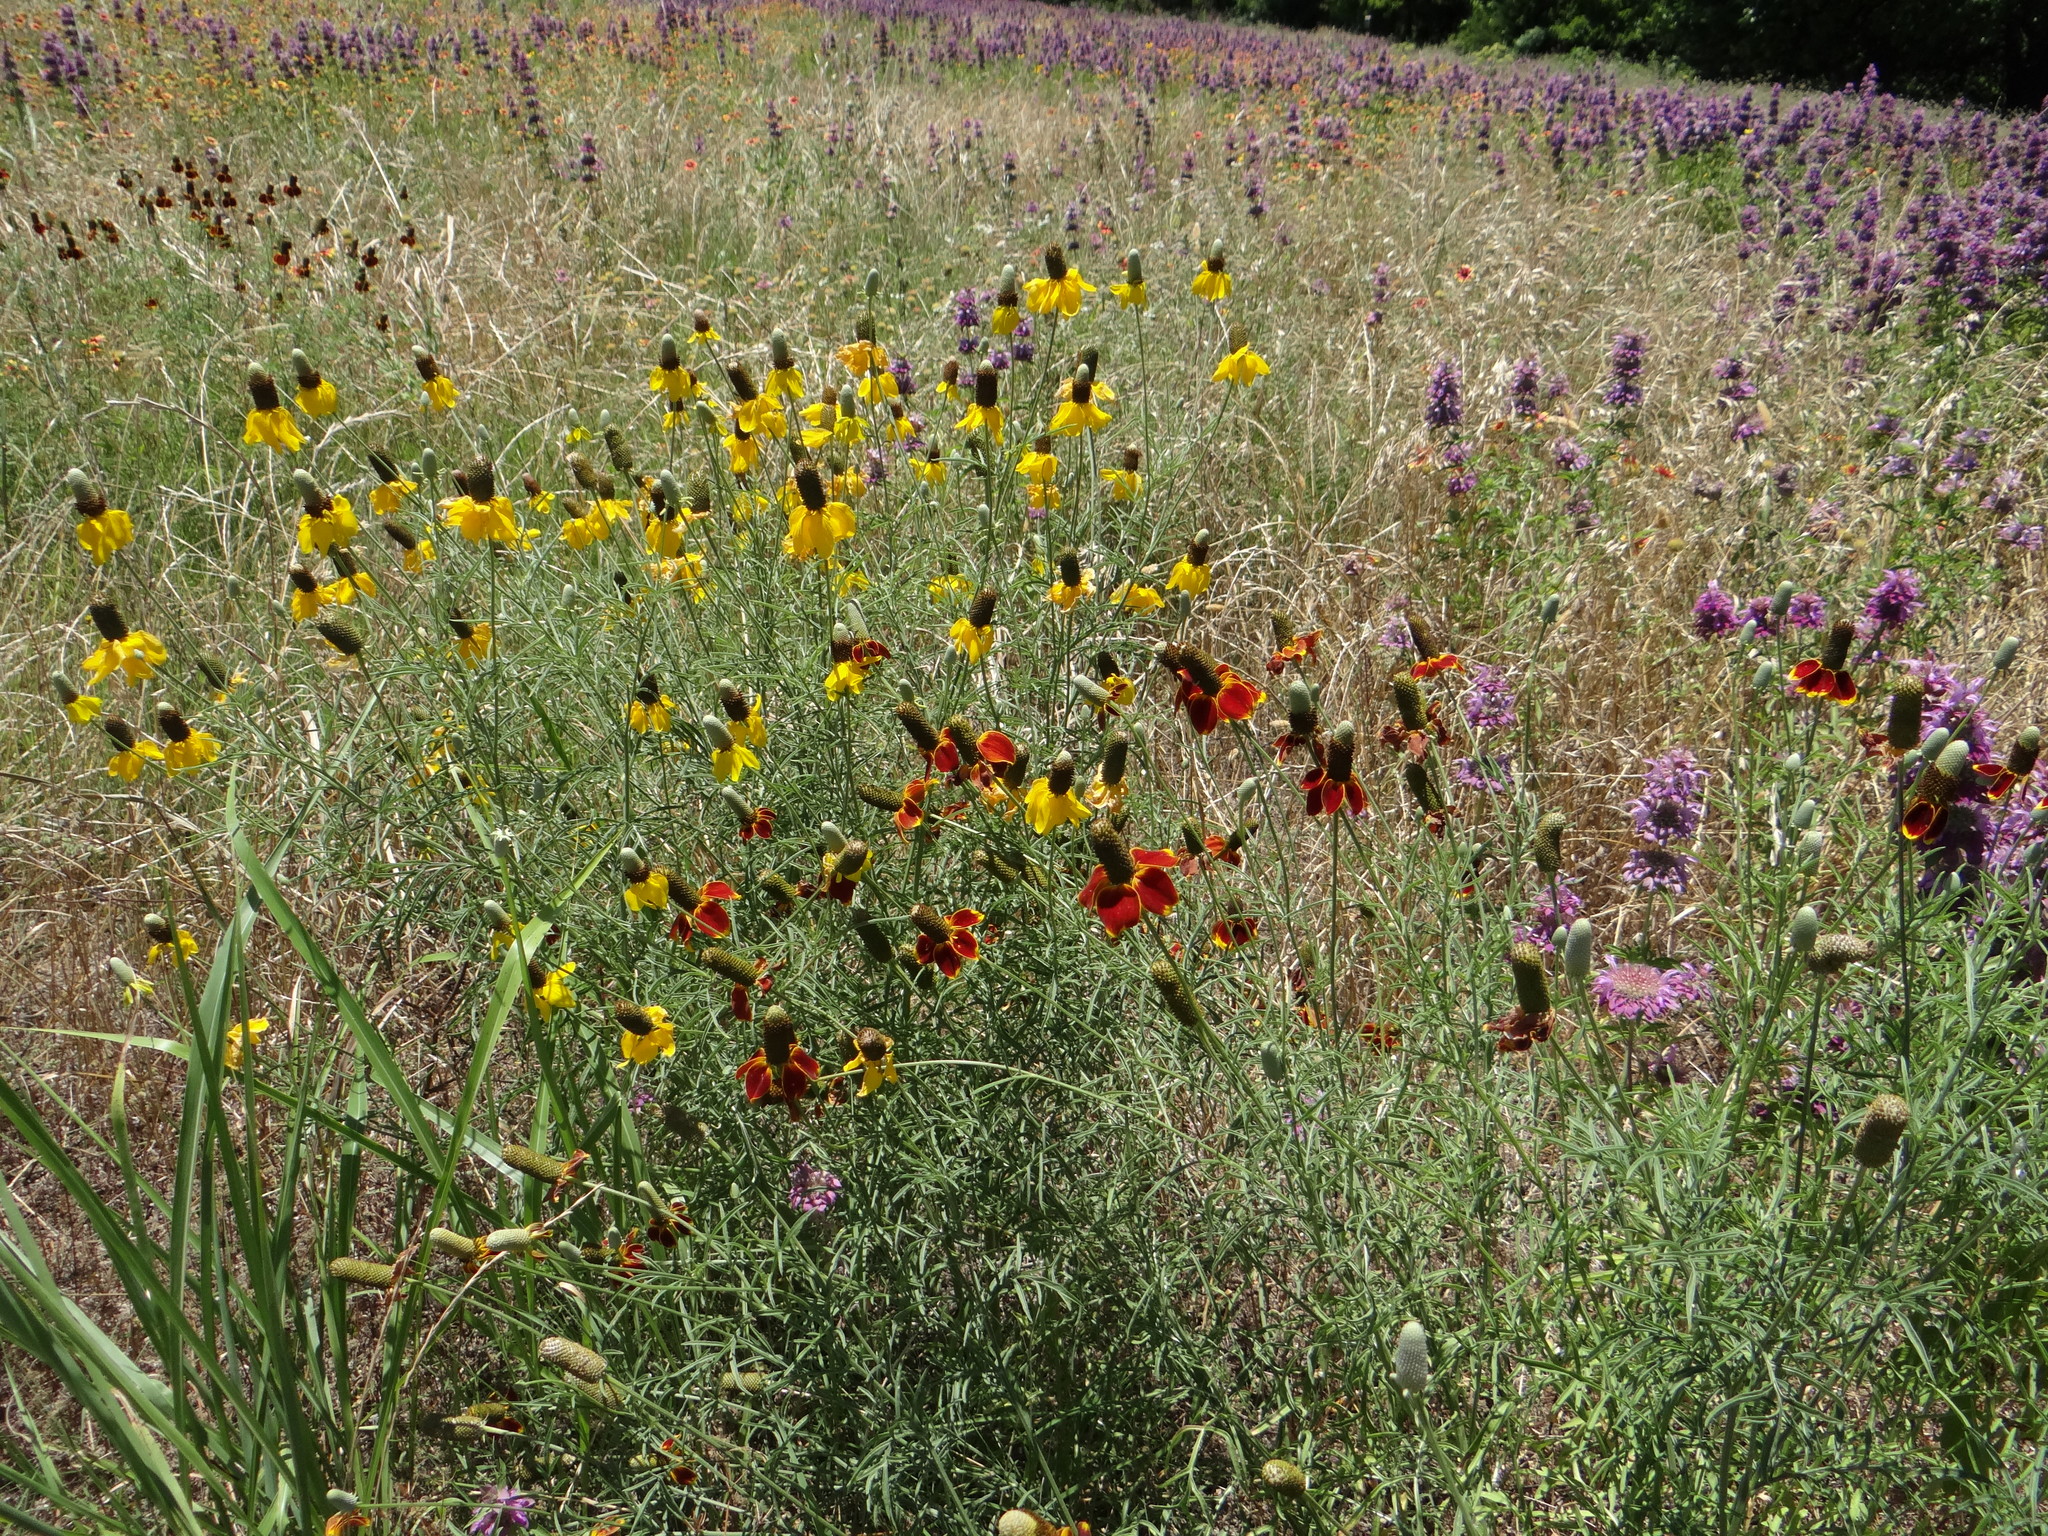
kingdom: Plantae
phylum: Tracheophyta
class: Magnoliopsida
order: Asterales
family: Asteraceae
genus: Ratibida
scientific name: Ratibida columnifera
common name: Prairie coneflower
